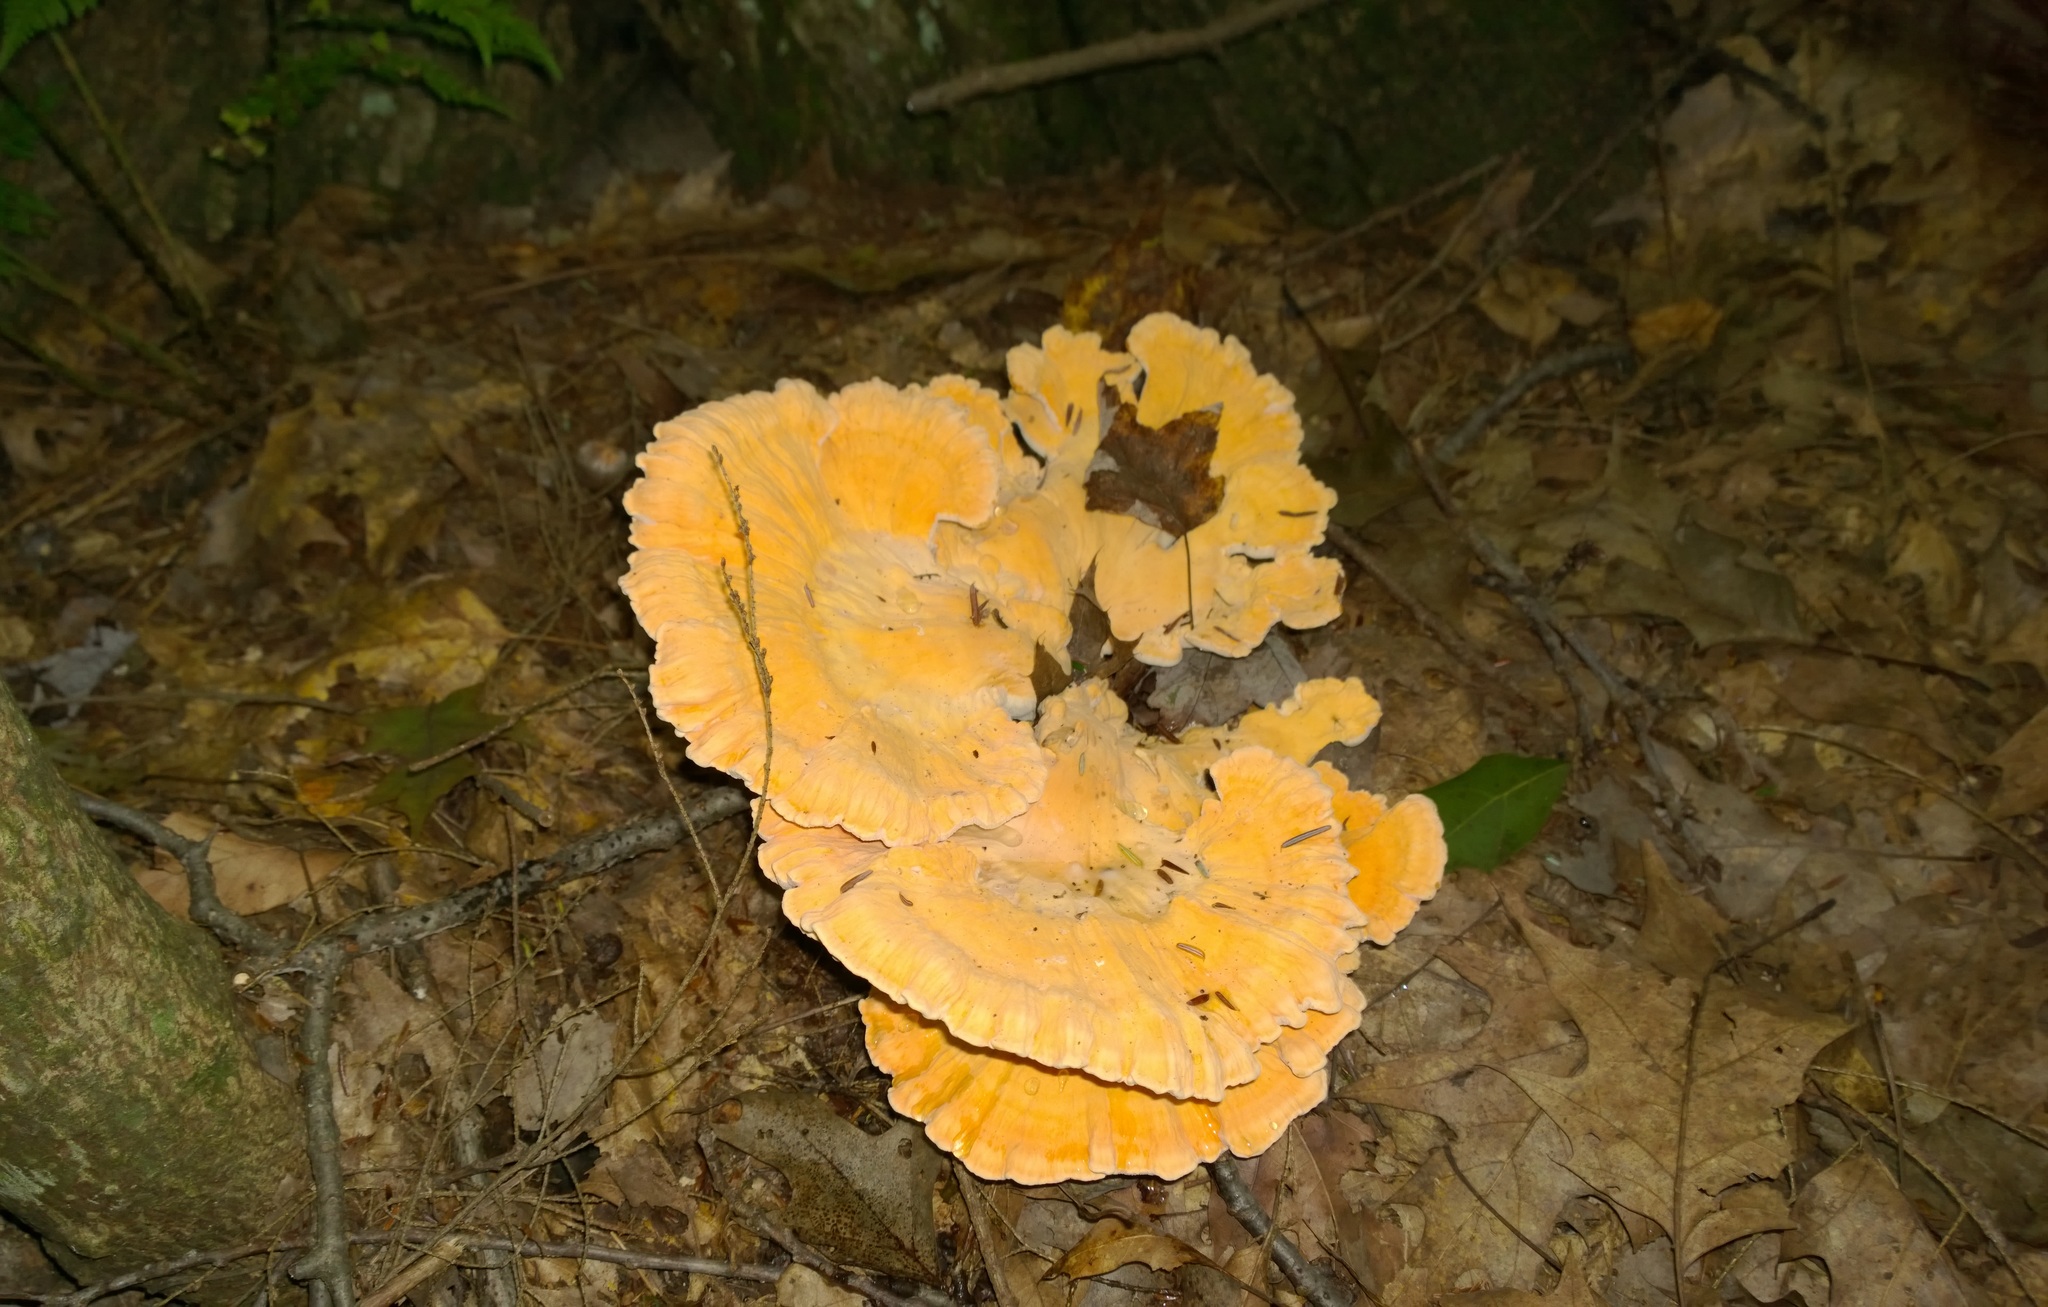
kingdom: Fungi
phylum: Basidiomycota
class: Agaricomycetes
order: Polyporales
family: Laetiporaceae
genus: Laetiporus
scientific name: Laetiporus sulphureus
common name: Chicken of the woods
